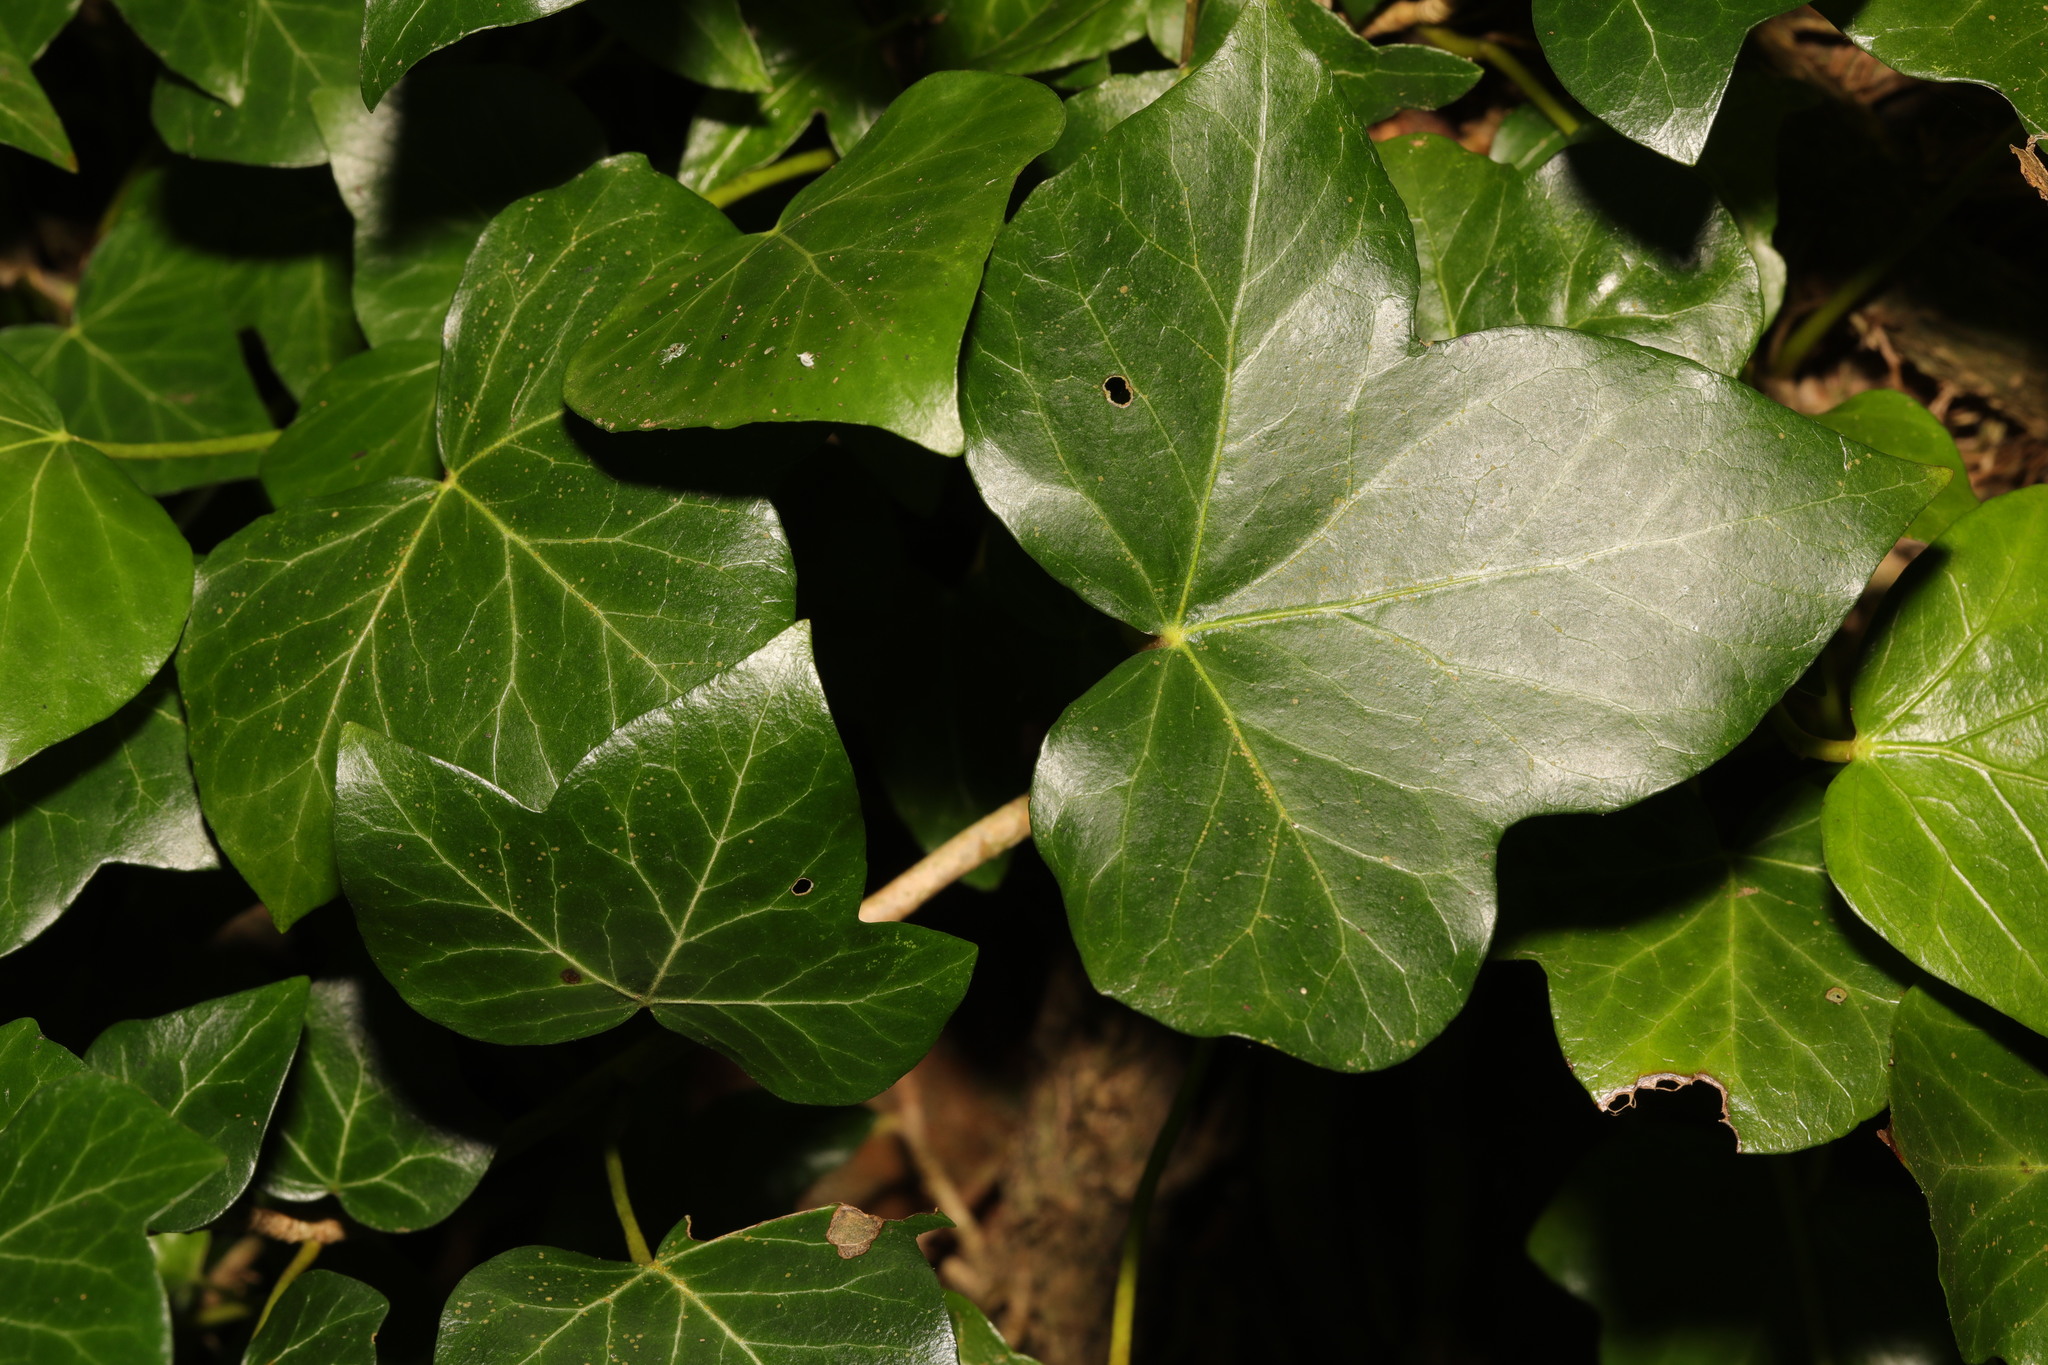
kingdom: Plantae
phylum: Tracheophyta
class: Magnoliopsida
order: Apiales
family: Araliaceae
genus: Hedera
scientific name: Hedera helix
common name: Ivy
